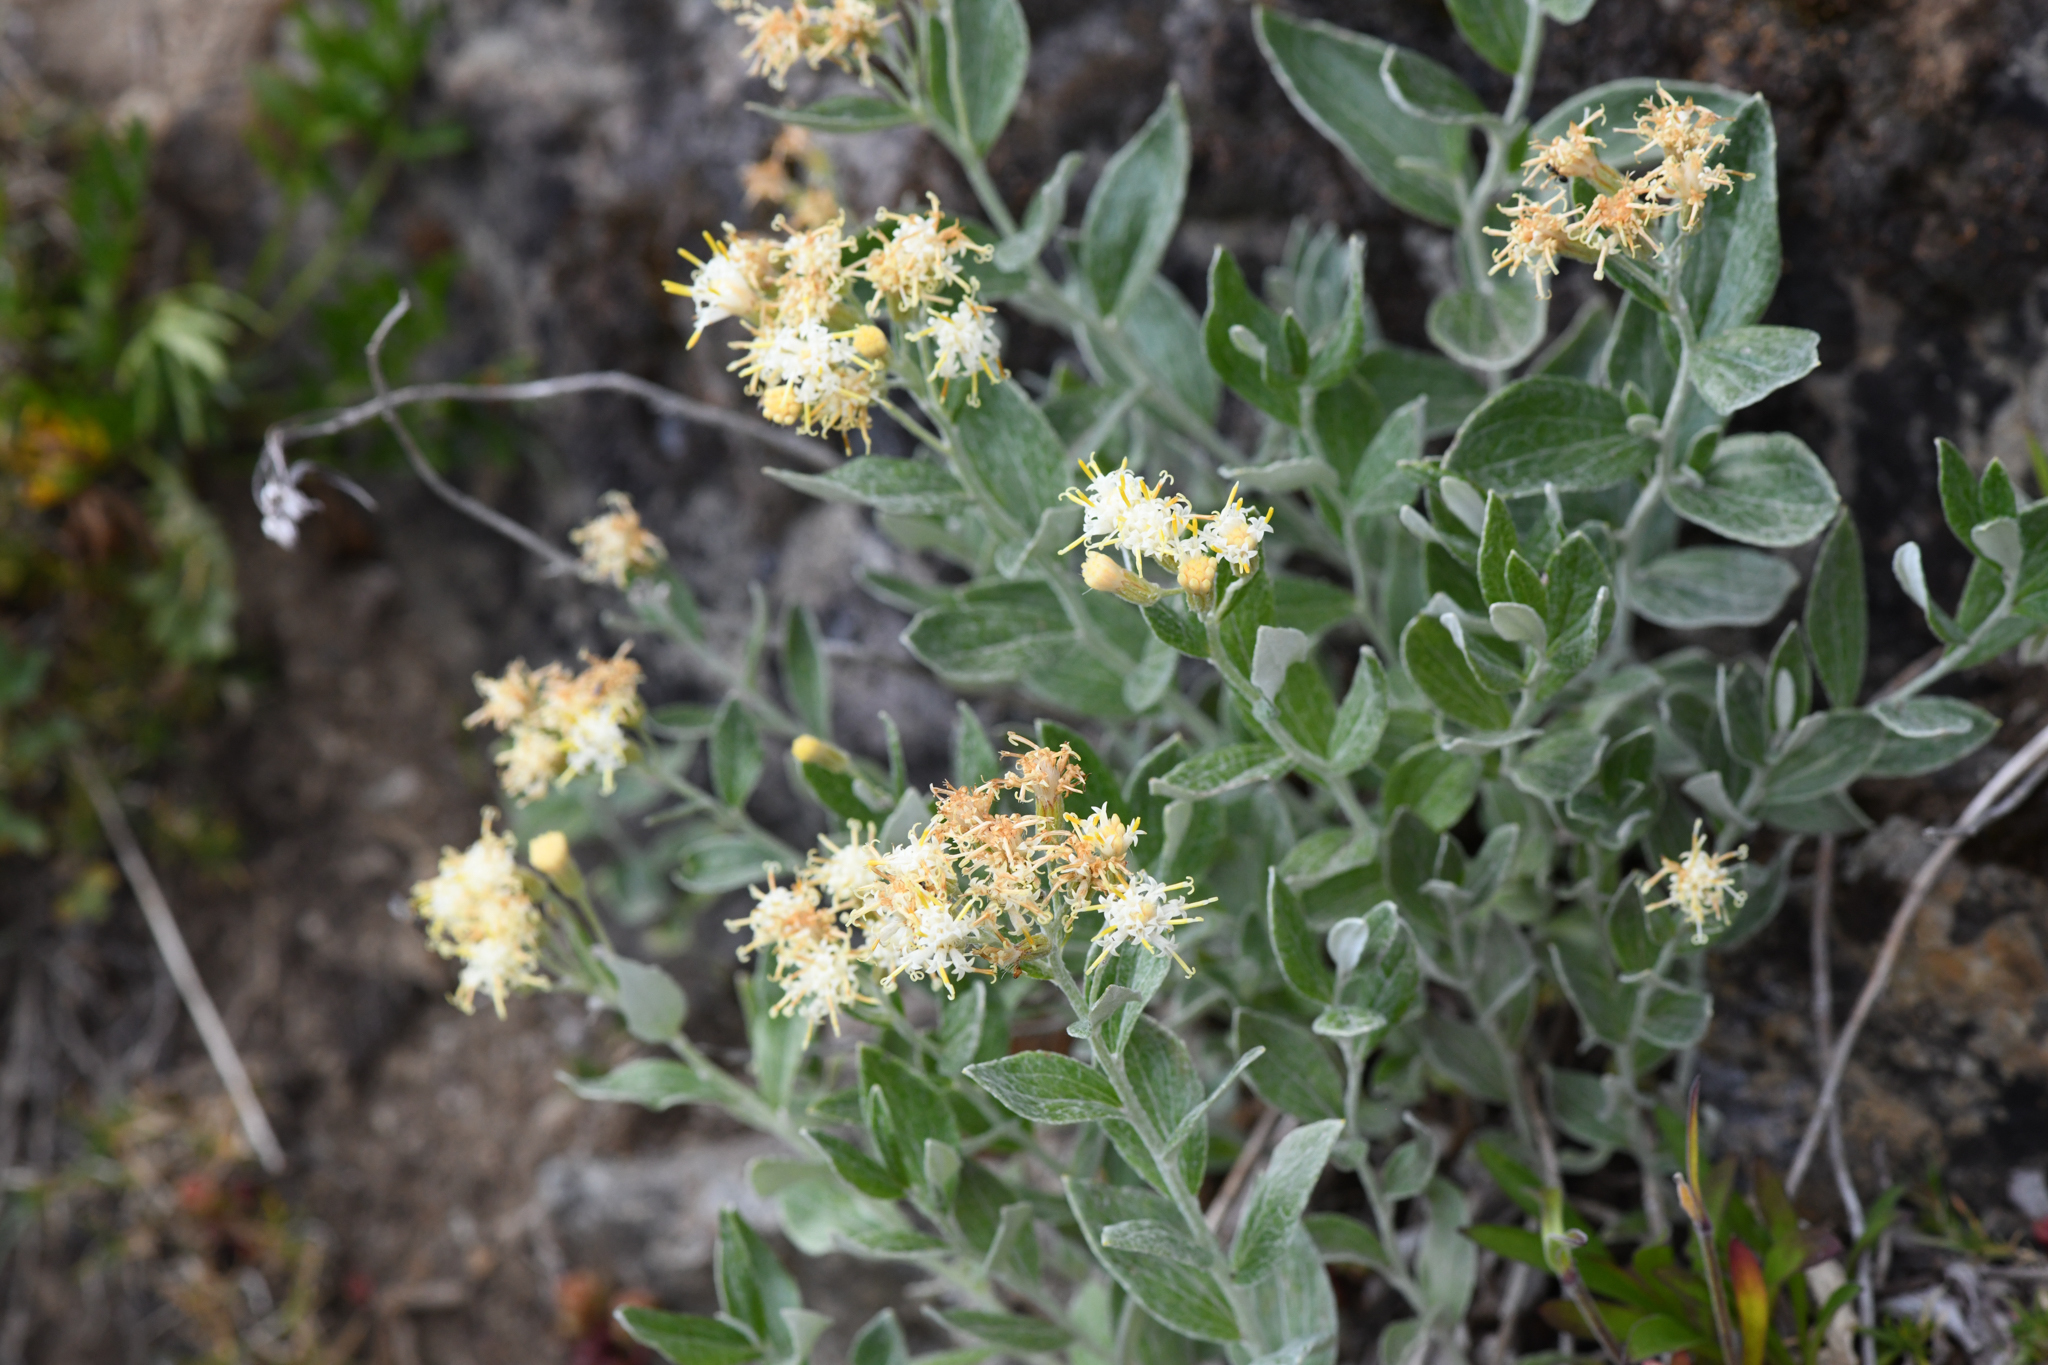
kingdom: Plantae
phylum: Tracheophyta
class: Magnoliopsida
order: Asterales
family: Asteraceae
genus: Luina
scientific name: Luina hypoleuca
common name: Little-leaved luina
